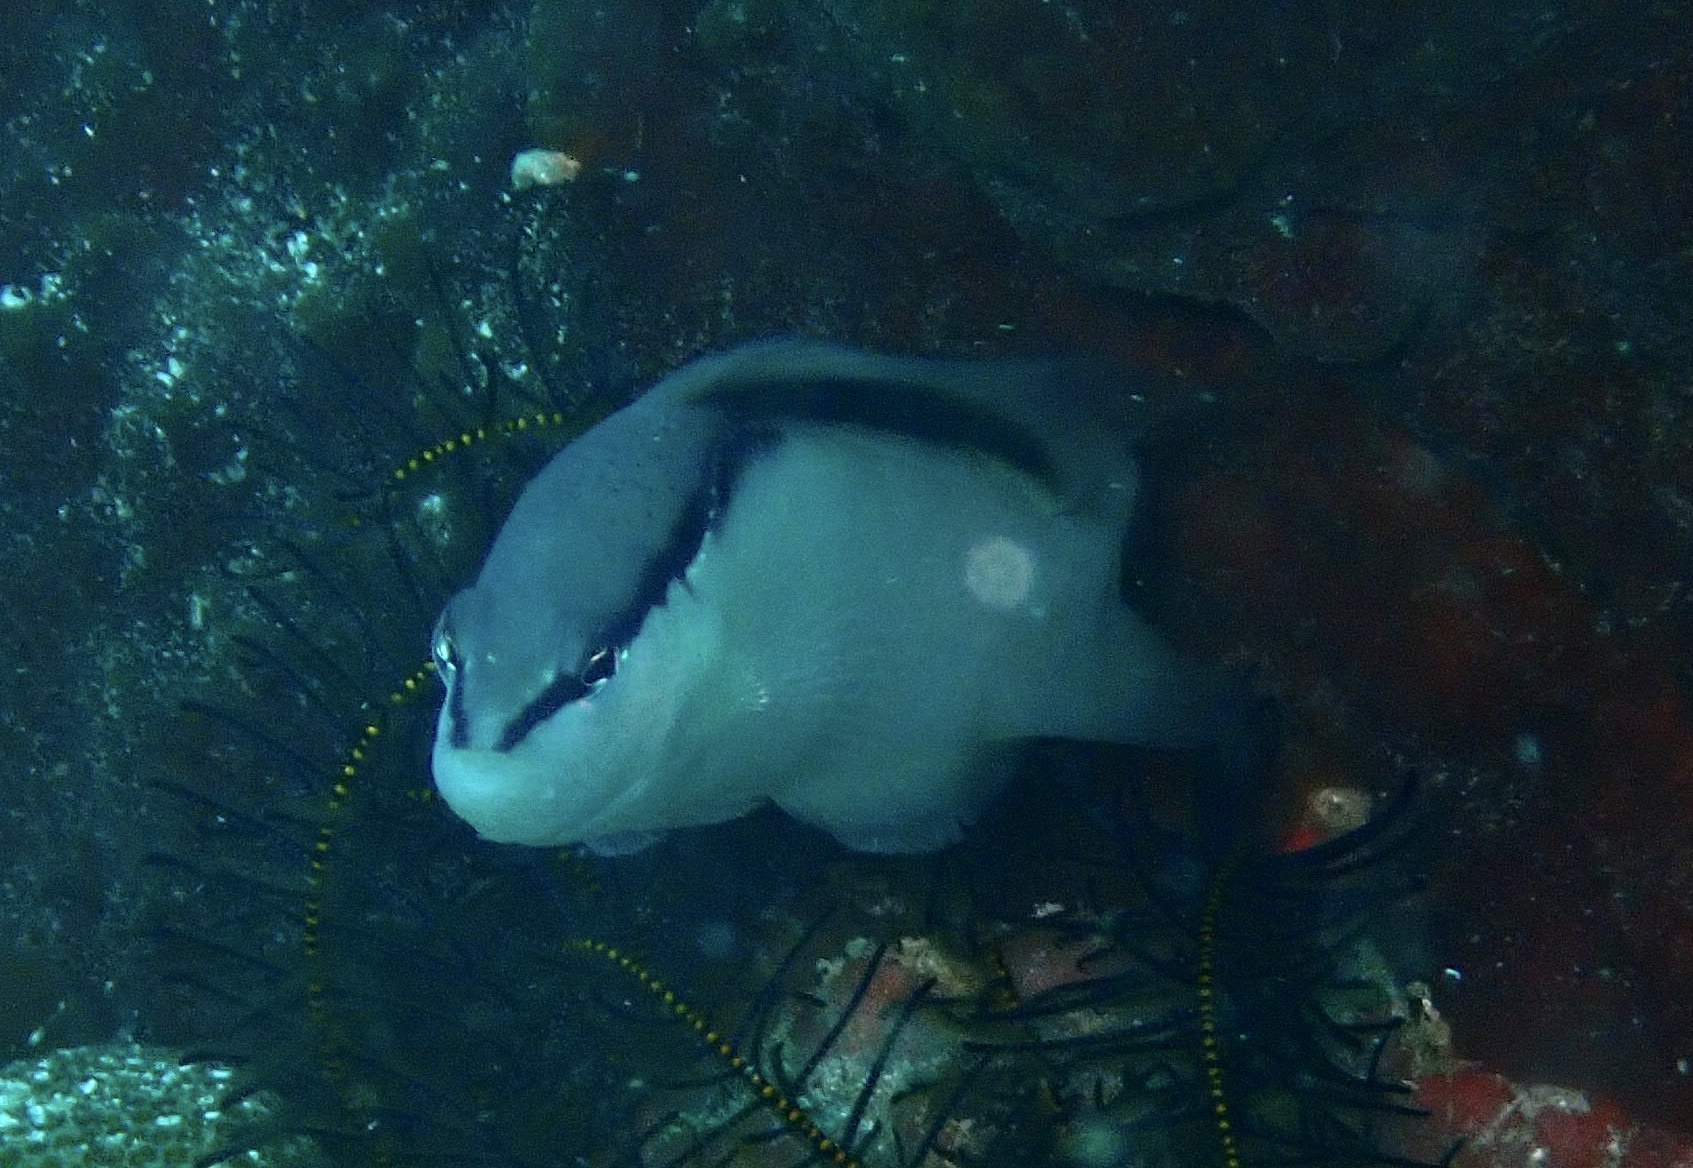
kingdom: Animalia
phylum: Chordata
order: Perciformes
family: Pseudochromidae
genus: Pseudochromis
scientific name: Pseudochromis perspicillatus
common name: Southeast asian blackstripe dottyback
